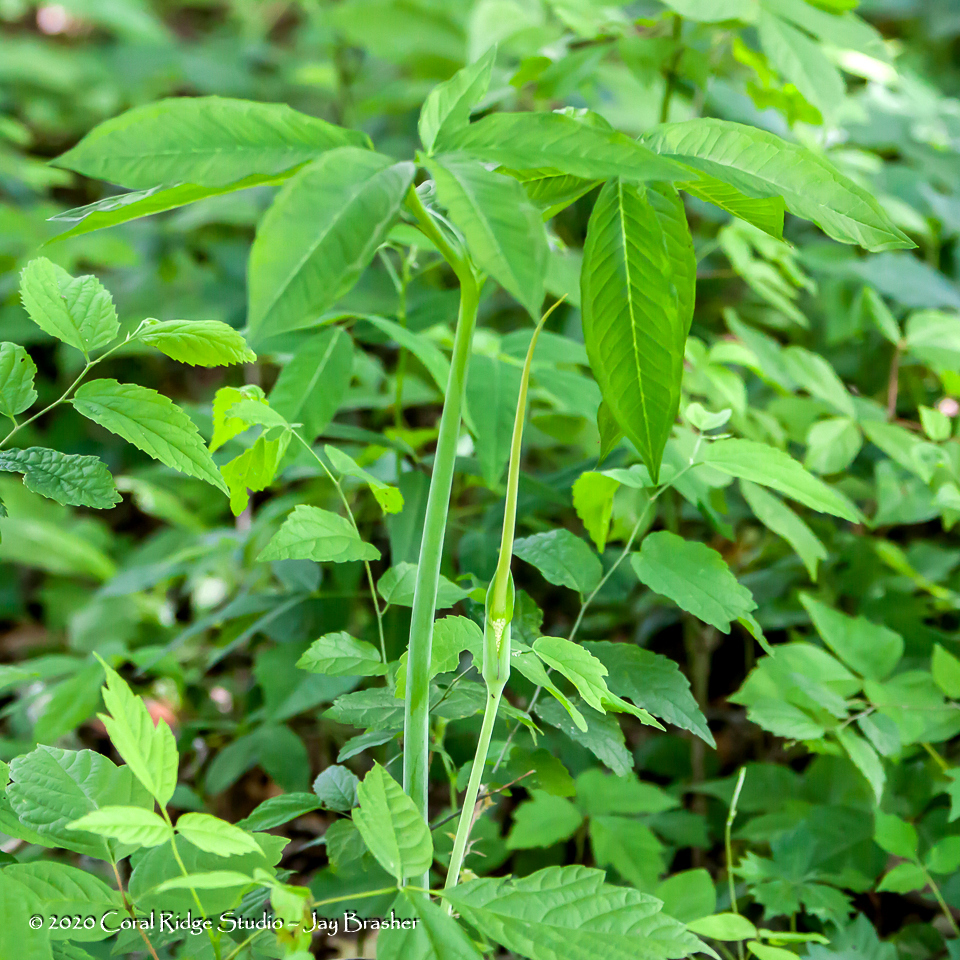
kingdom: Plantae
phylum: Tracheophyta
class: Liliopsida
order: Alismatales
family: Araceae
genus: Arisaema
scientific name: Arisaema dracontium
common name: Dragon-arum
